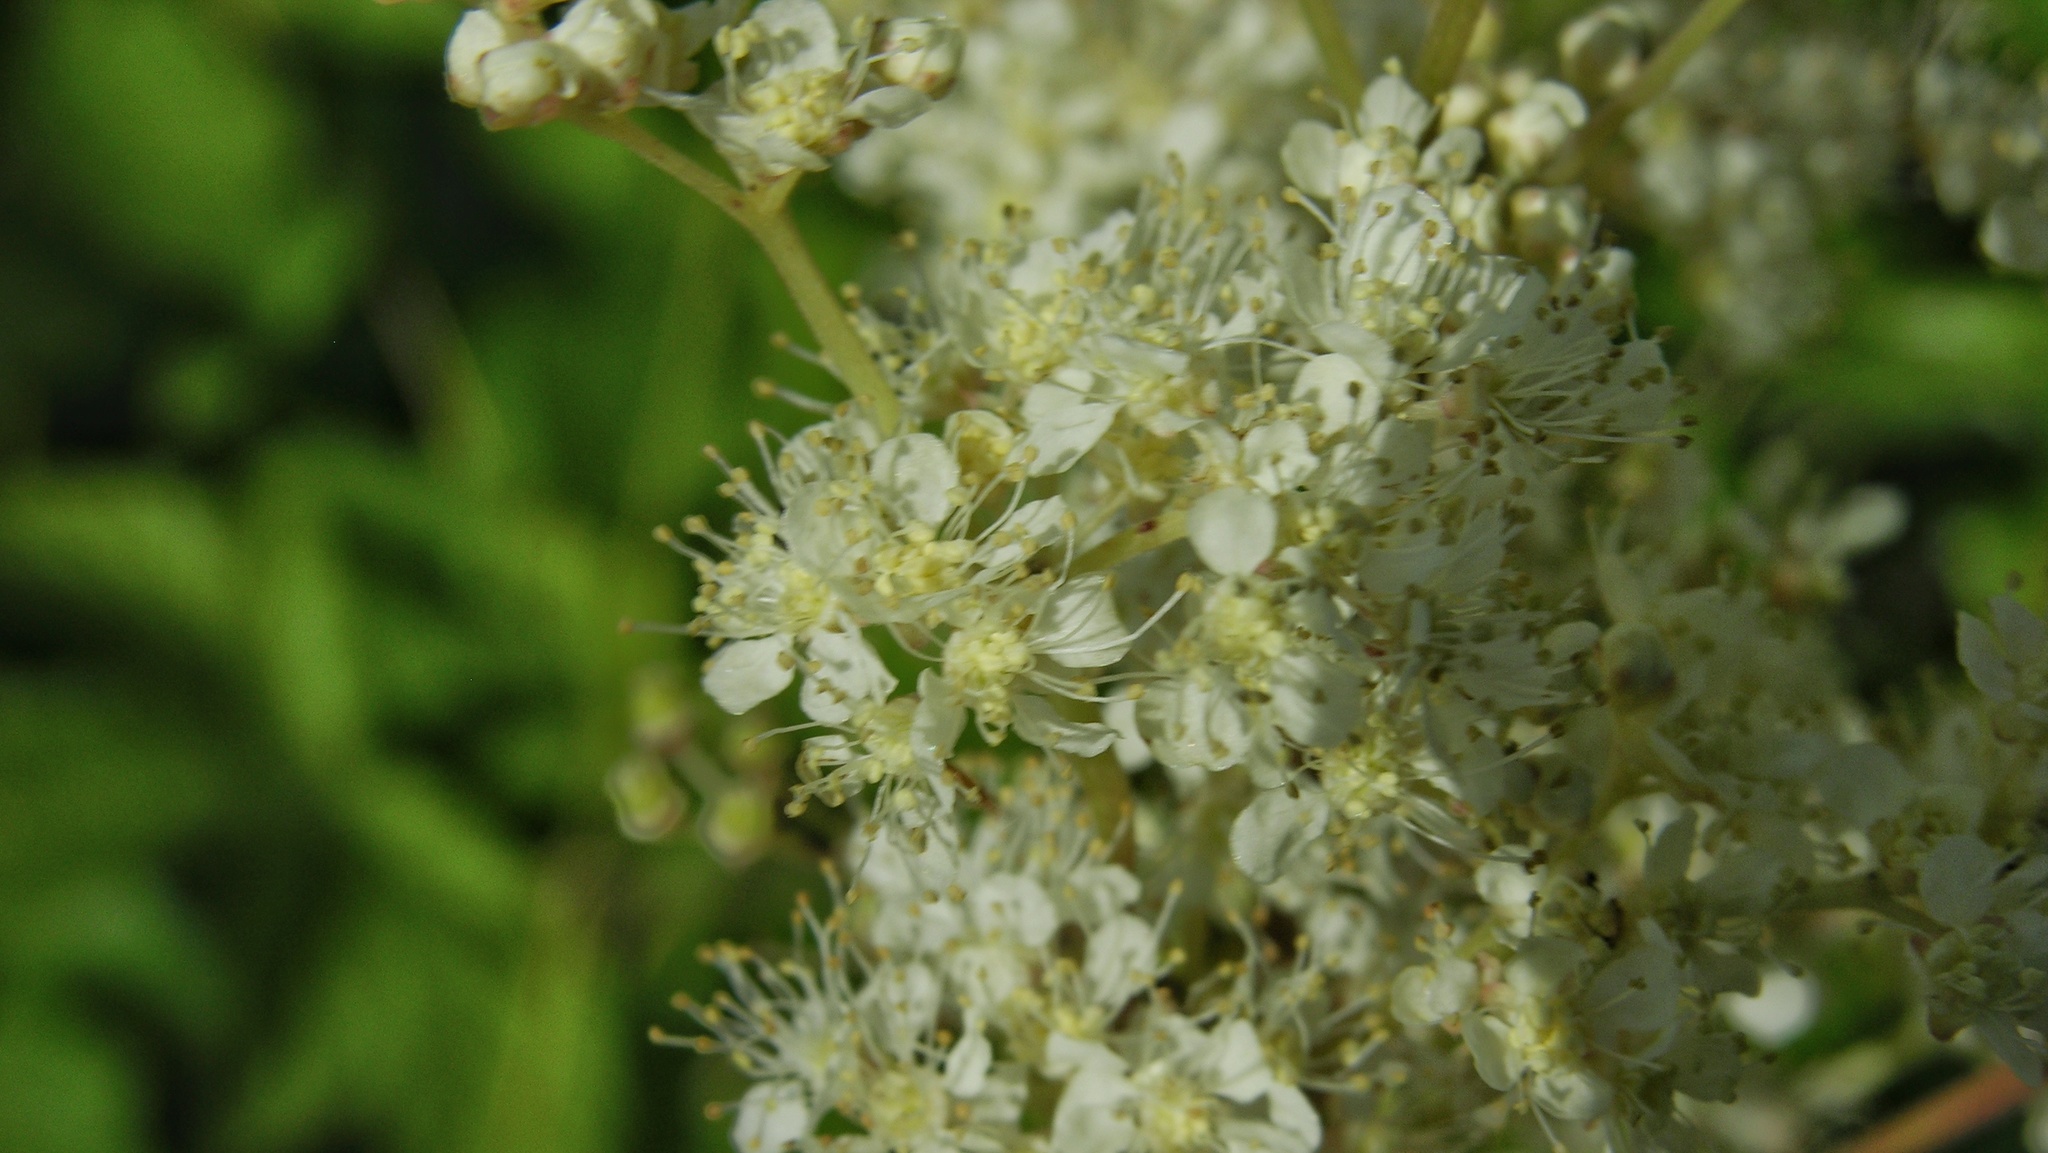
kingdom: Plantae
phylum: Tracheophyta
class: Magnoliopsida
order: Rosales
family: Rosaceae
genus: Filipendula
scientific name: Filipendula ulmaria
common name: Meadowsweet
